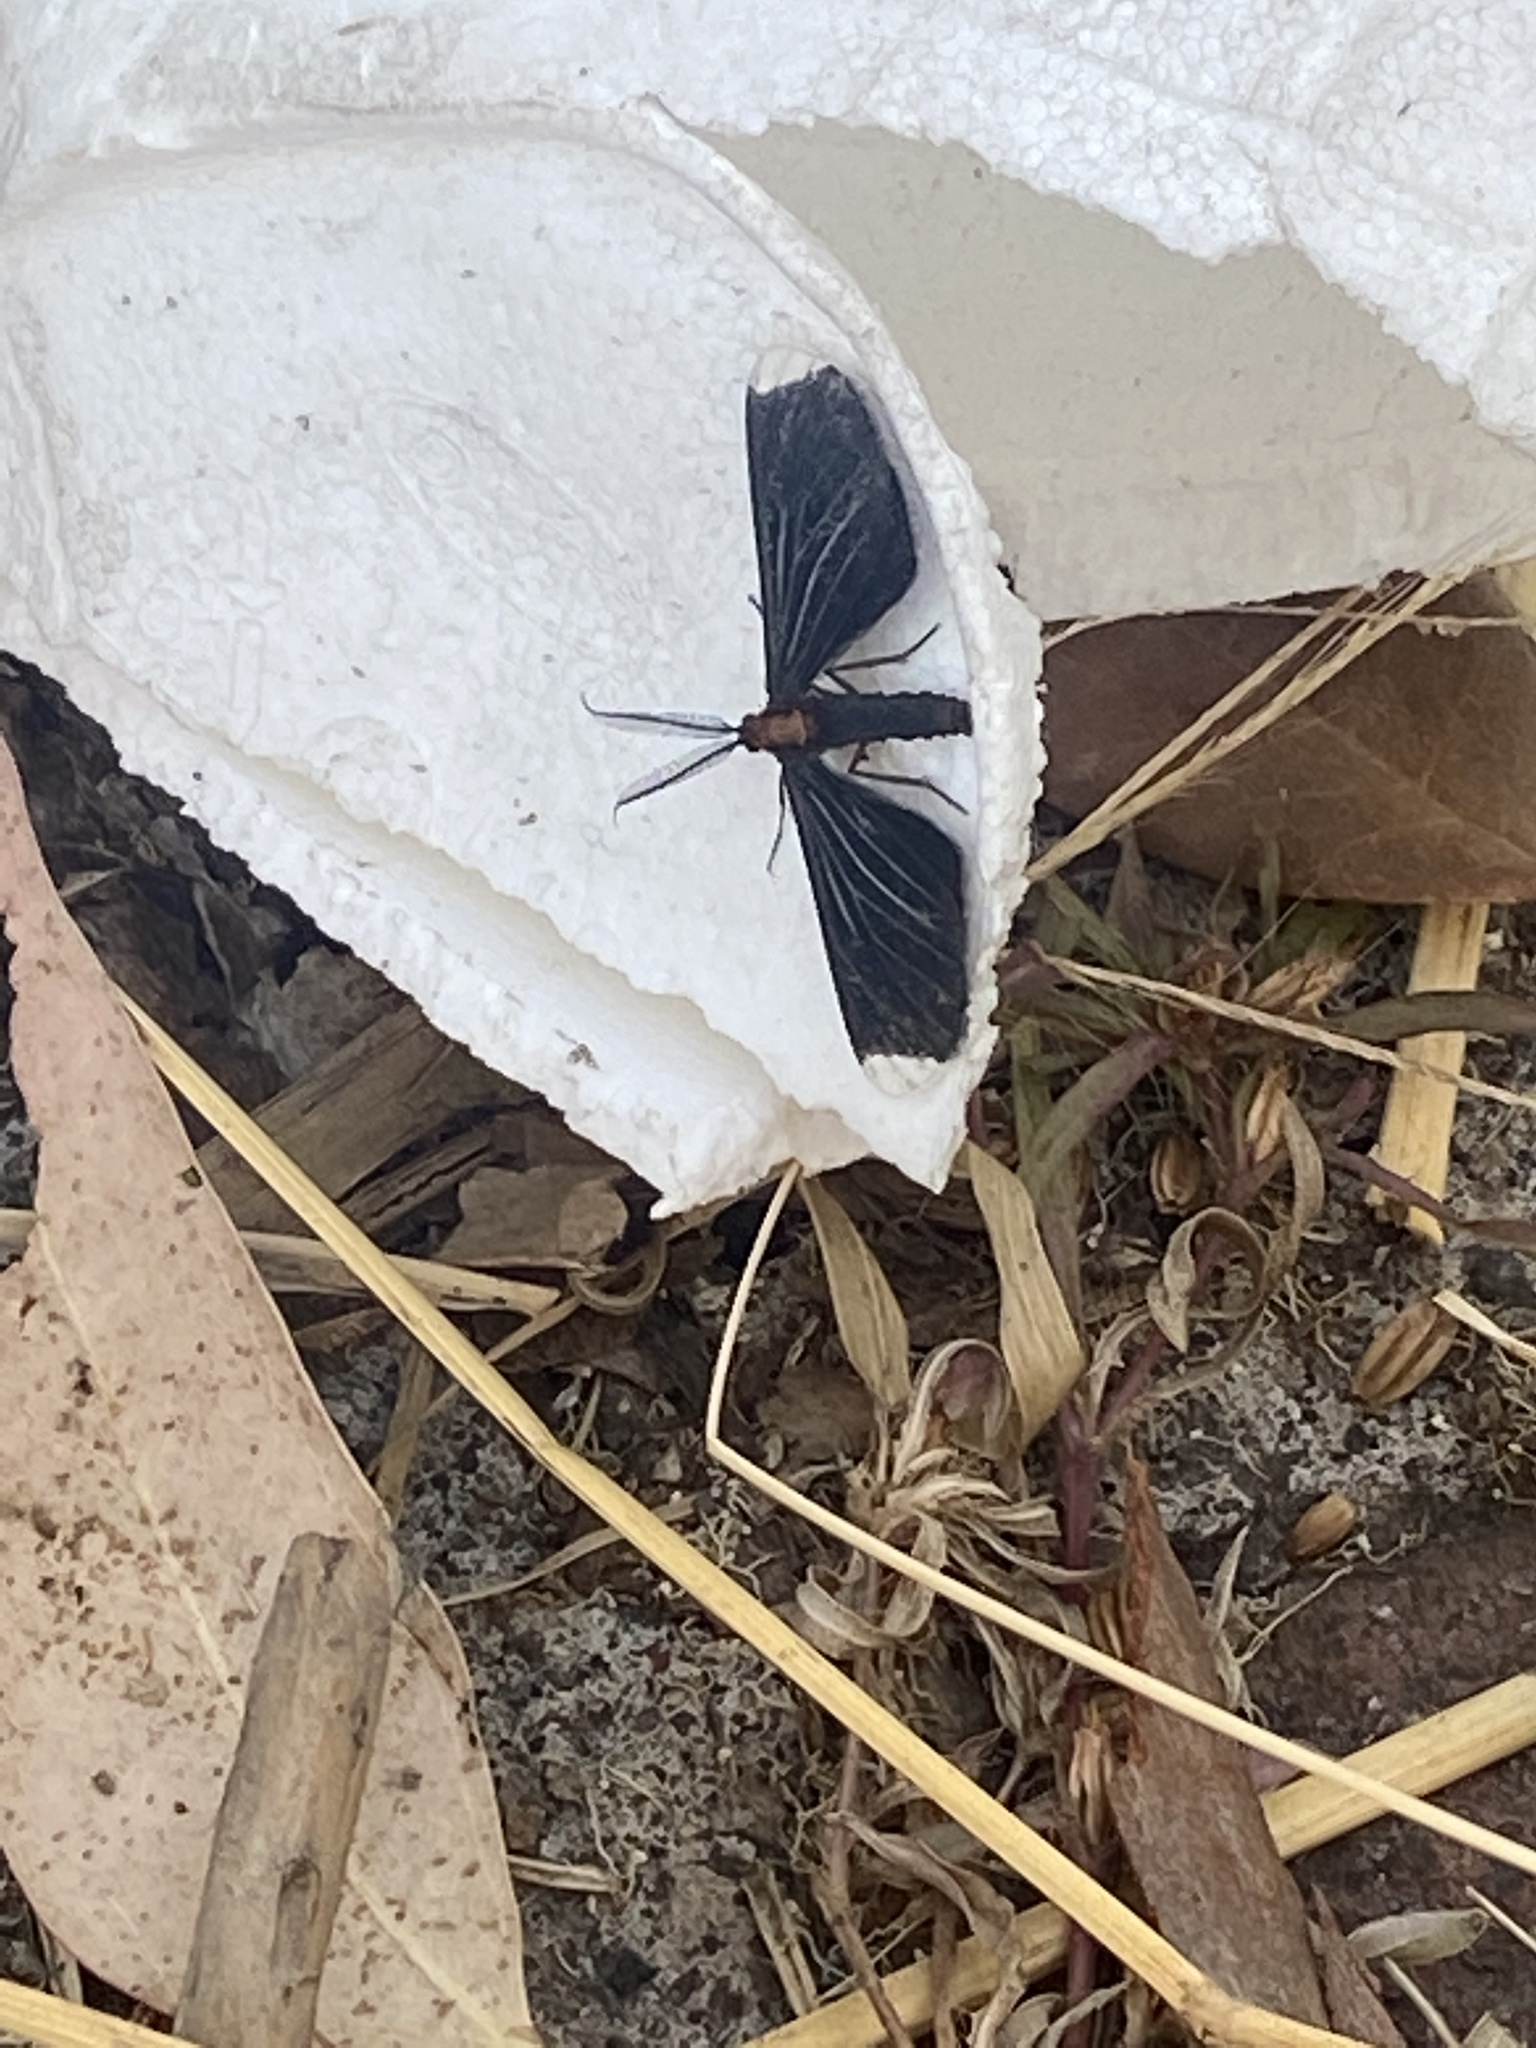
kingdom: Animalia
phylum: Arthropoda
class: Insecta
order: Lepidoptera
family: Geometridae
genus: Melanchroia
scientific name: Melanchroia chephise
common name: White-tipped black
